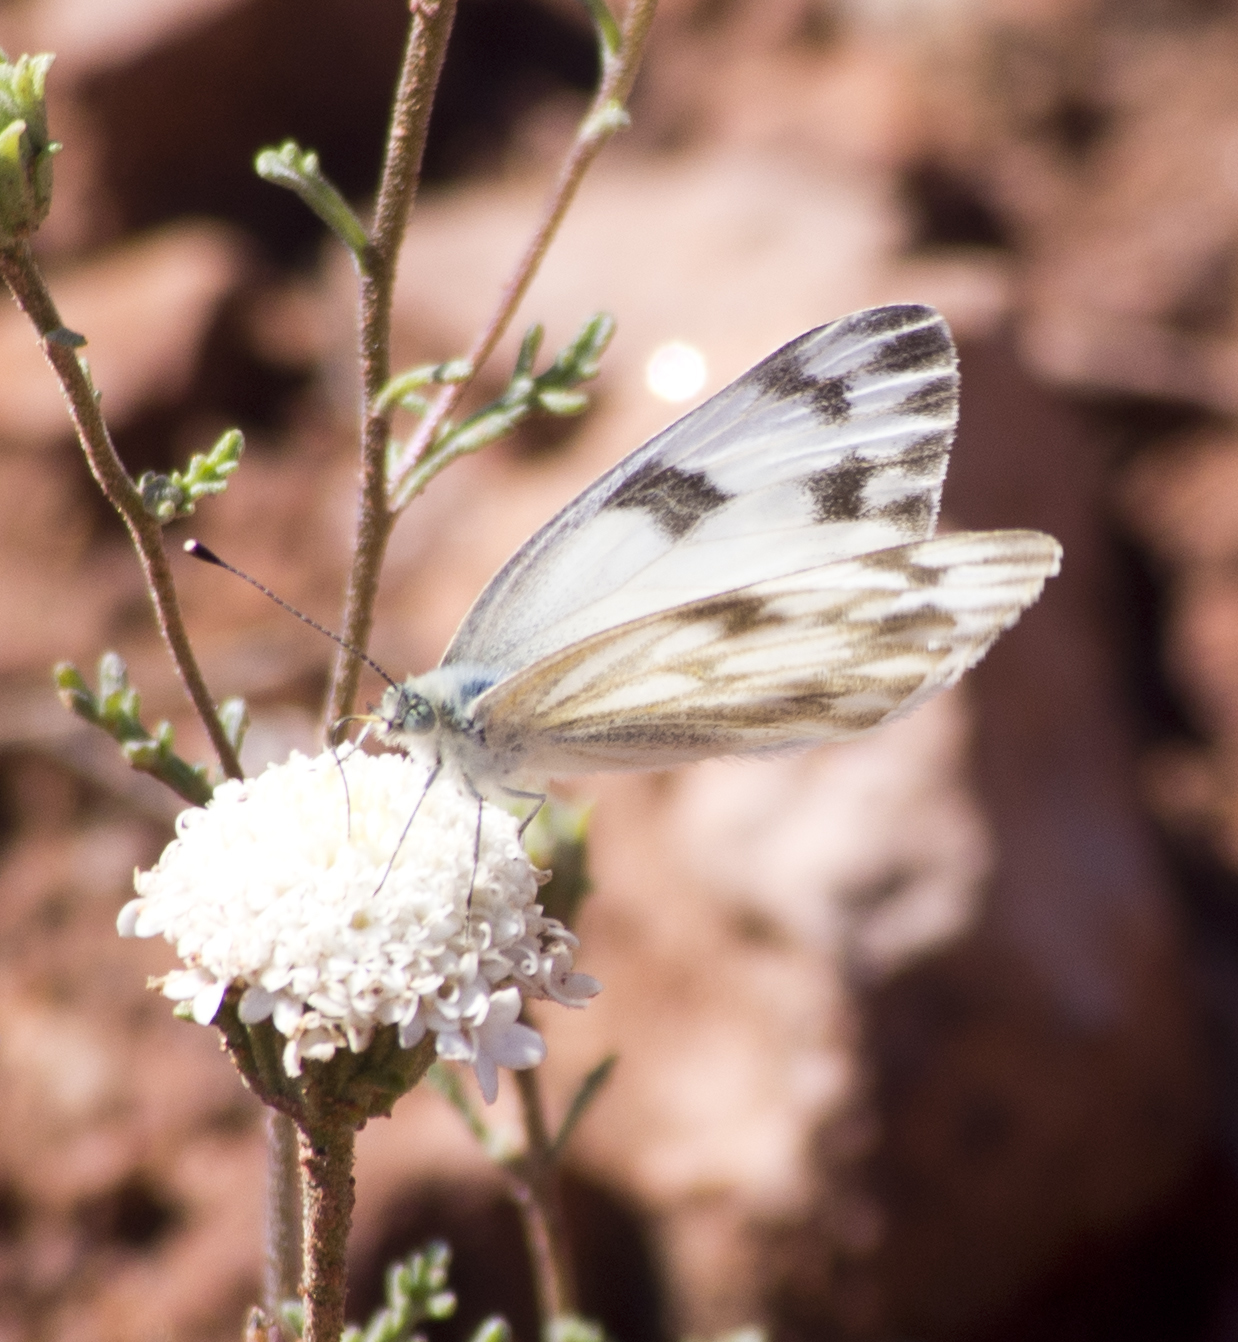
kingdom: Animalia
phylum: Arthropoda
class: Insecta
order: Lepidoptera
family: Pieridae
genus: Pontia
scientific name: Pontia protodice
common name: Checkered white
